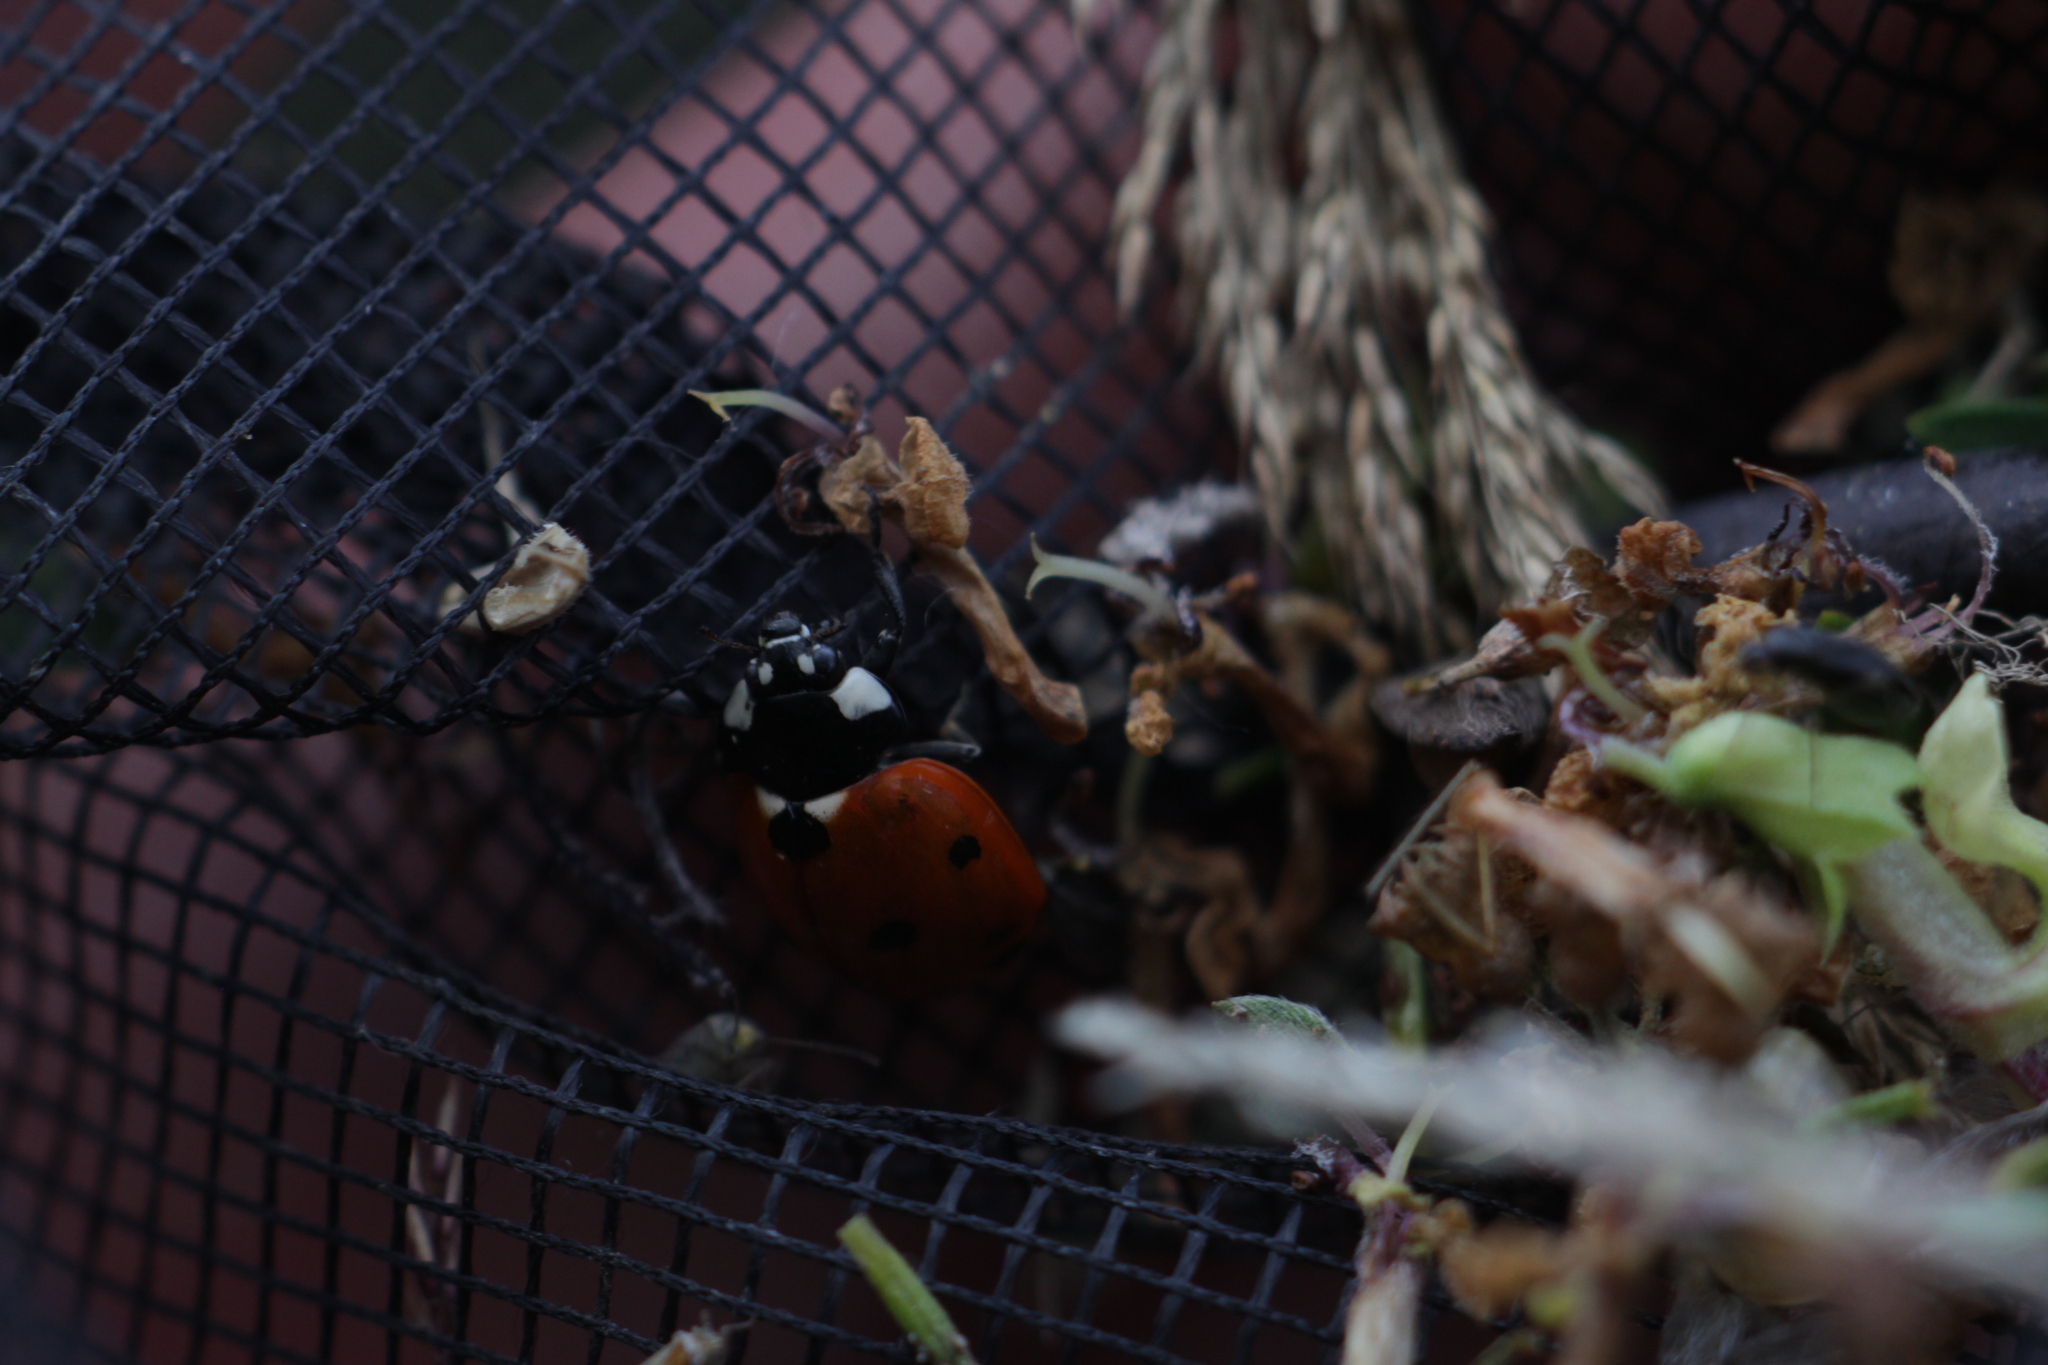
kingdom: Animalia
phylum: Arthropoda
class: Insecta
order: Coleoptera
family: Coccinellidae
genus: Coccinella
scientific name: Coccinella septempunctata
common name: Sevenspotted lady beetle
